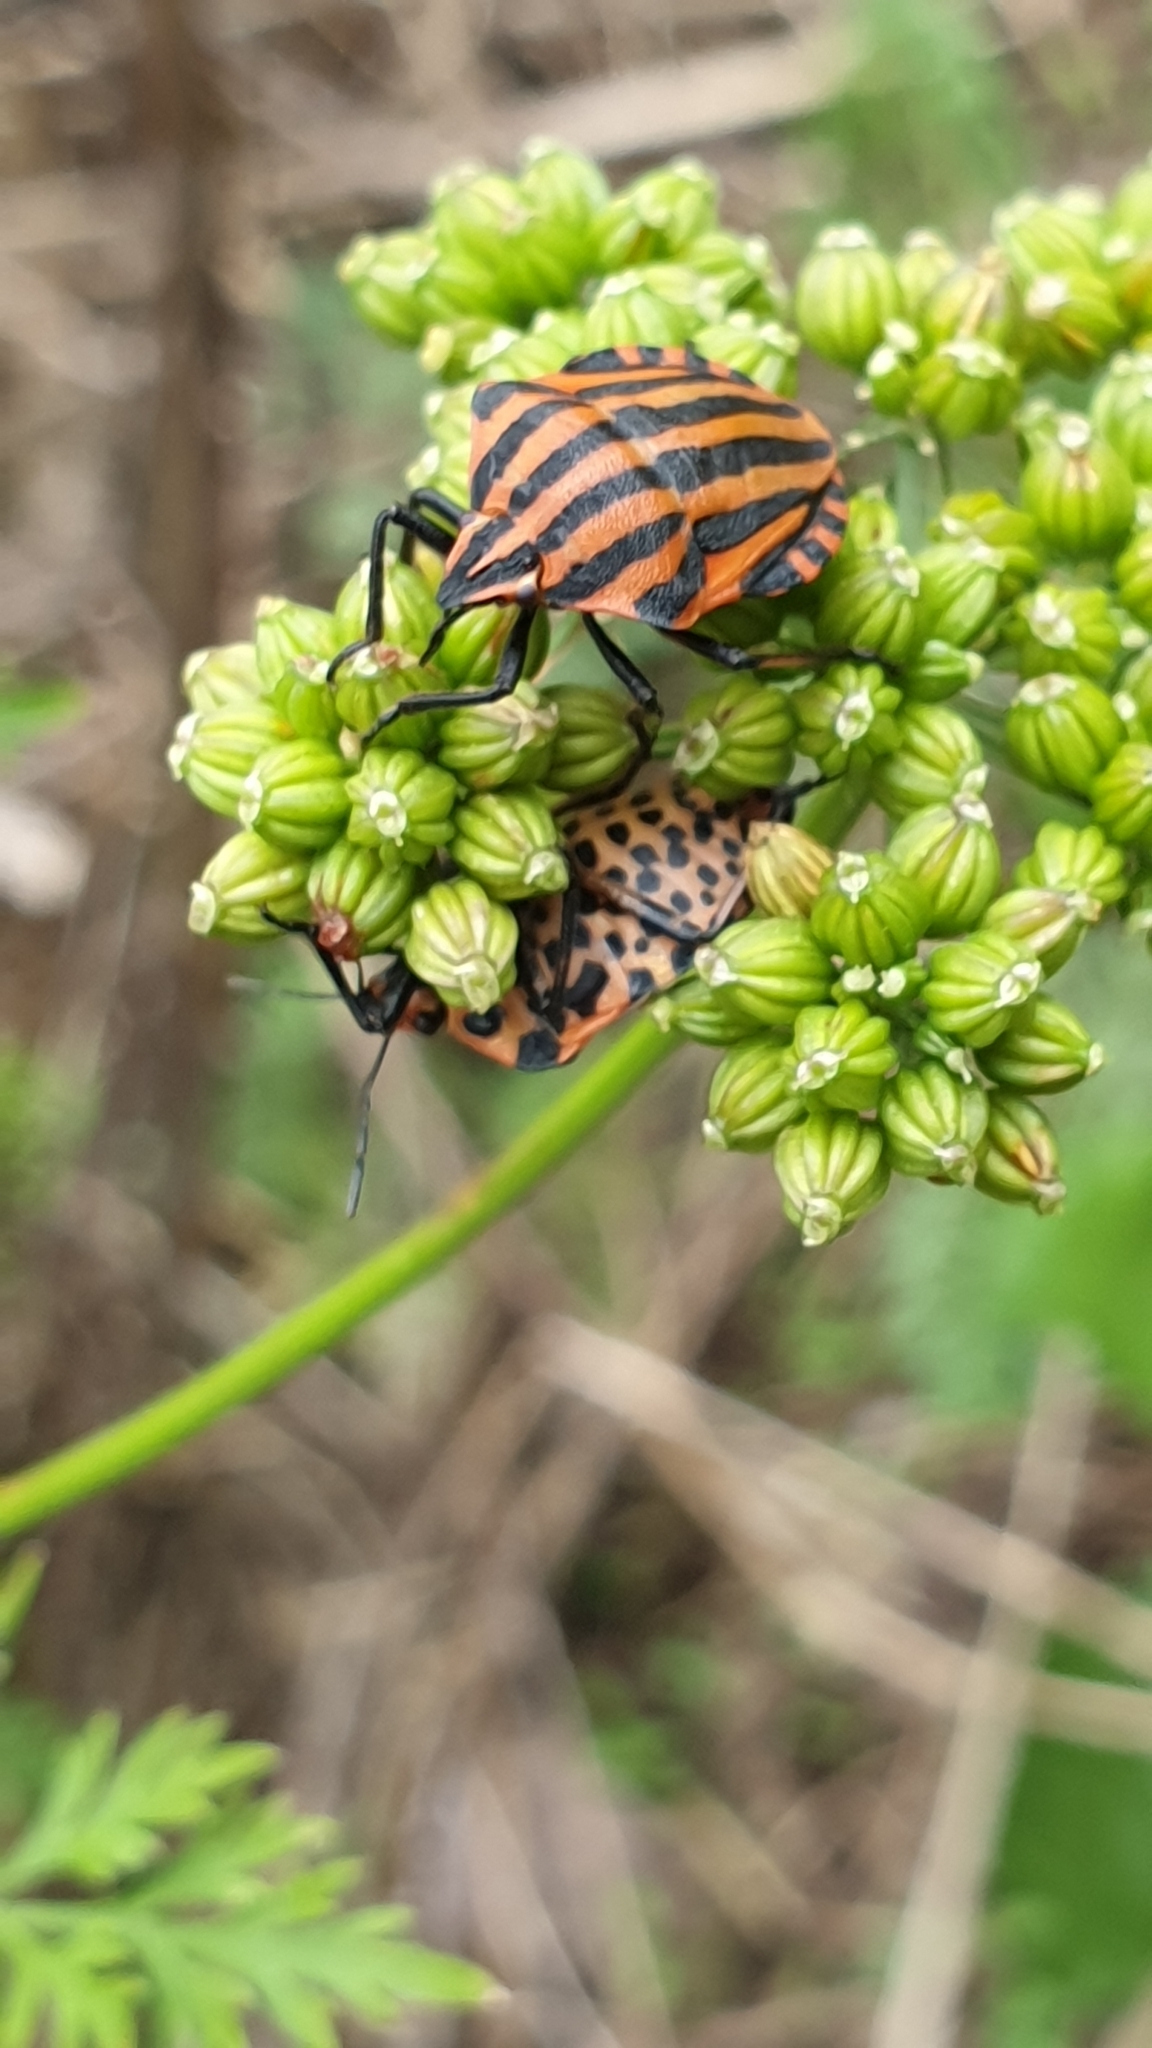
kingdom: Animalia
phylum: Arthropoda
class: Insecta
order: Hemiptera
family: Pentatomidae
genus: Graphosoma
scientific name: Graphosoma italicum
